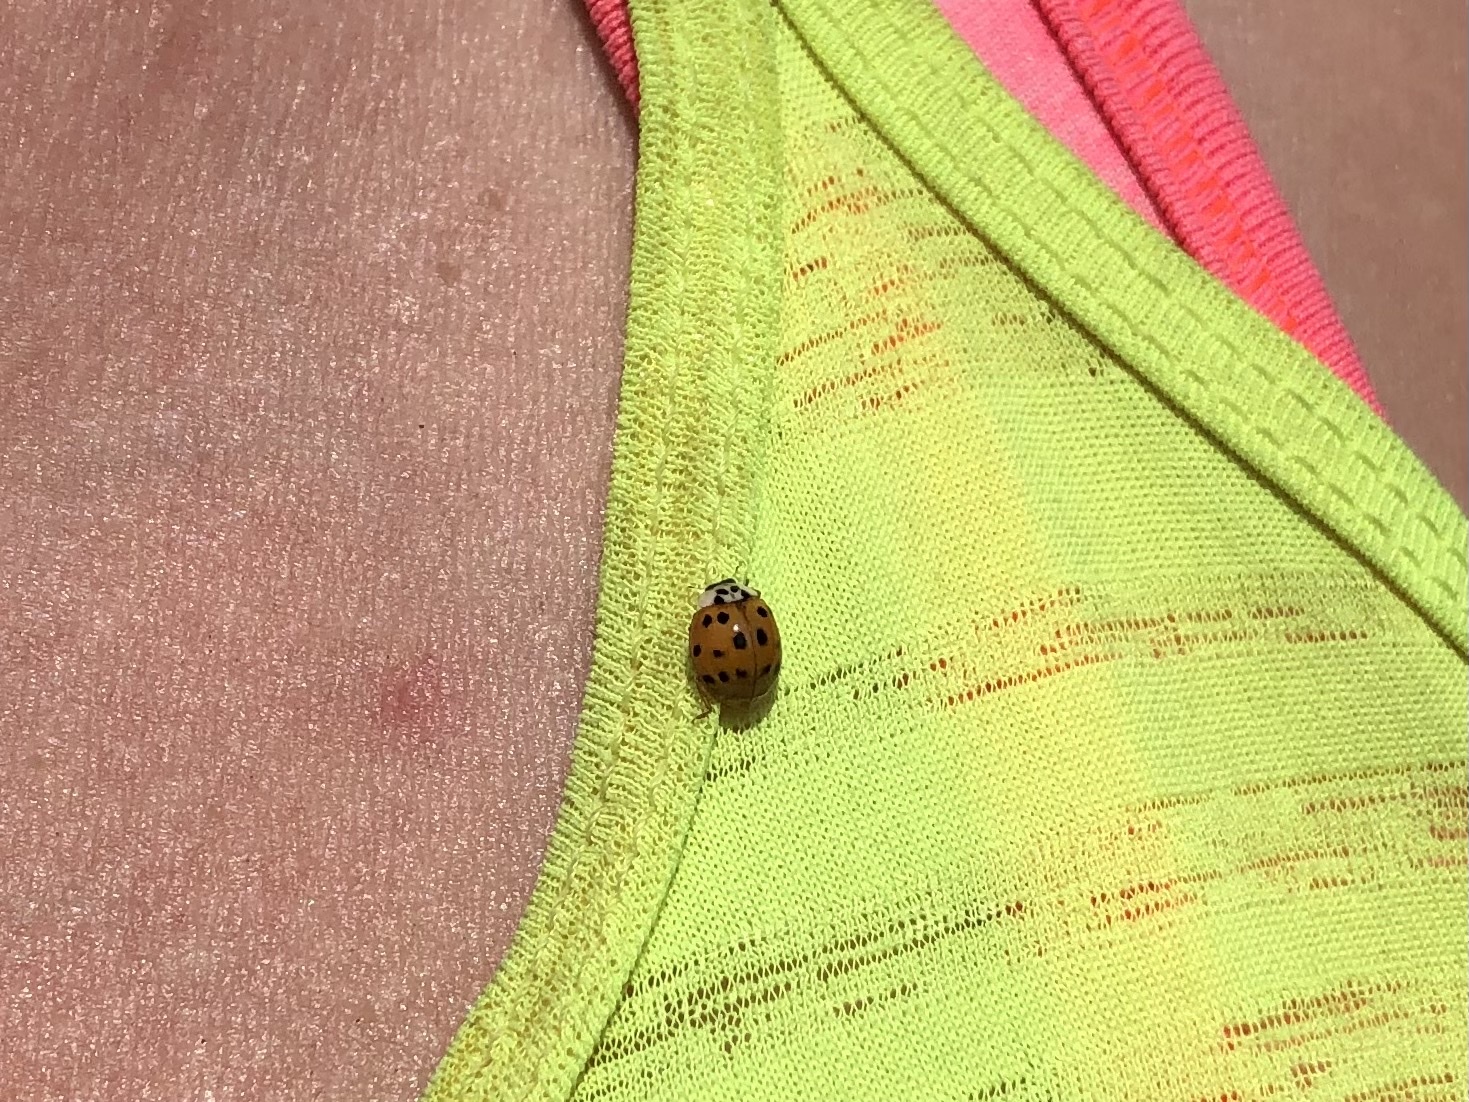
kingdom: Animalia
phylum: Arthropoda
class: Insecta
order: Coleoptera
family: Coccinellidae
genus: Harmonia
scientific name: Harmonia axyridis
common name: Harlequin ladybird
